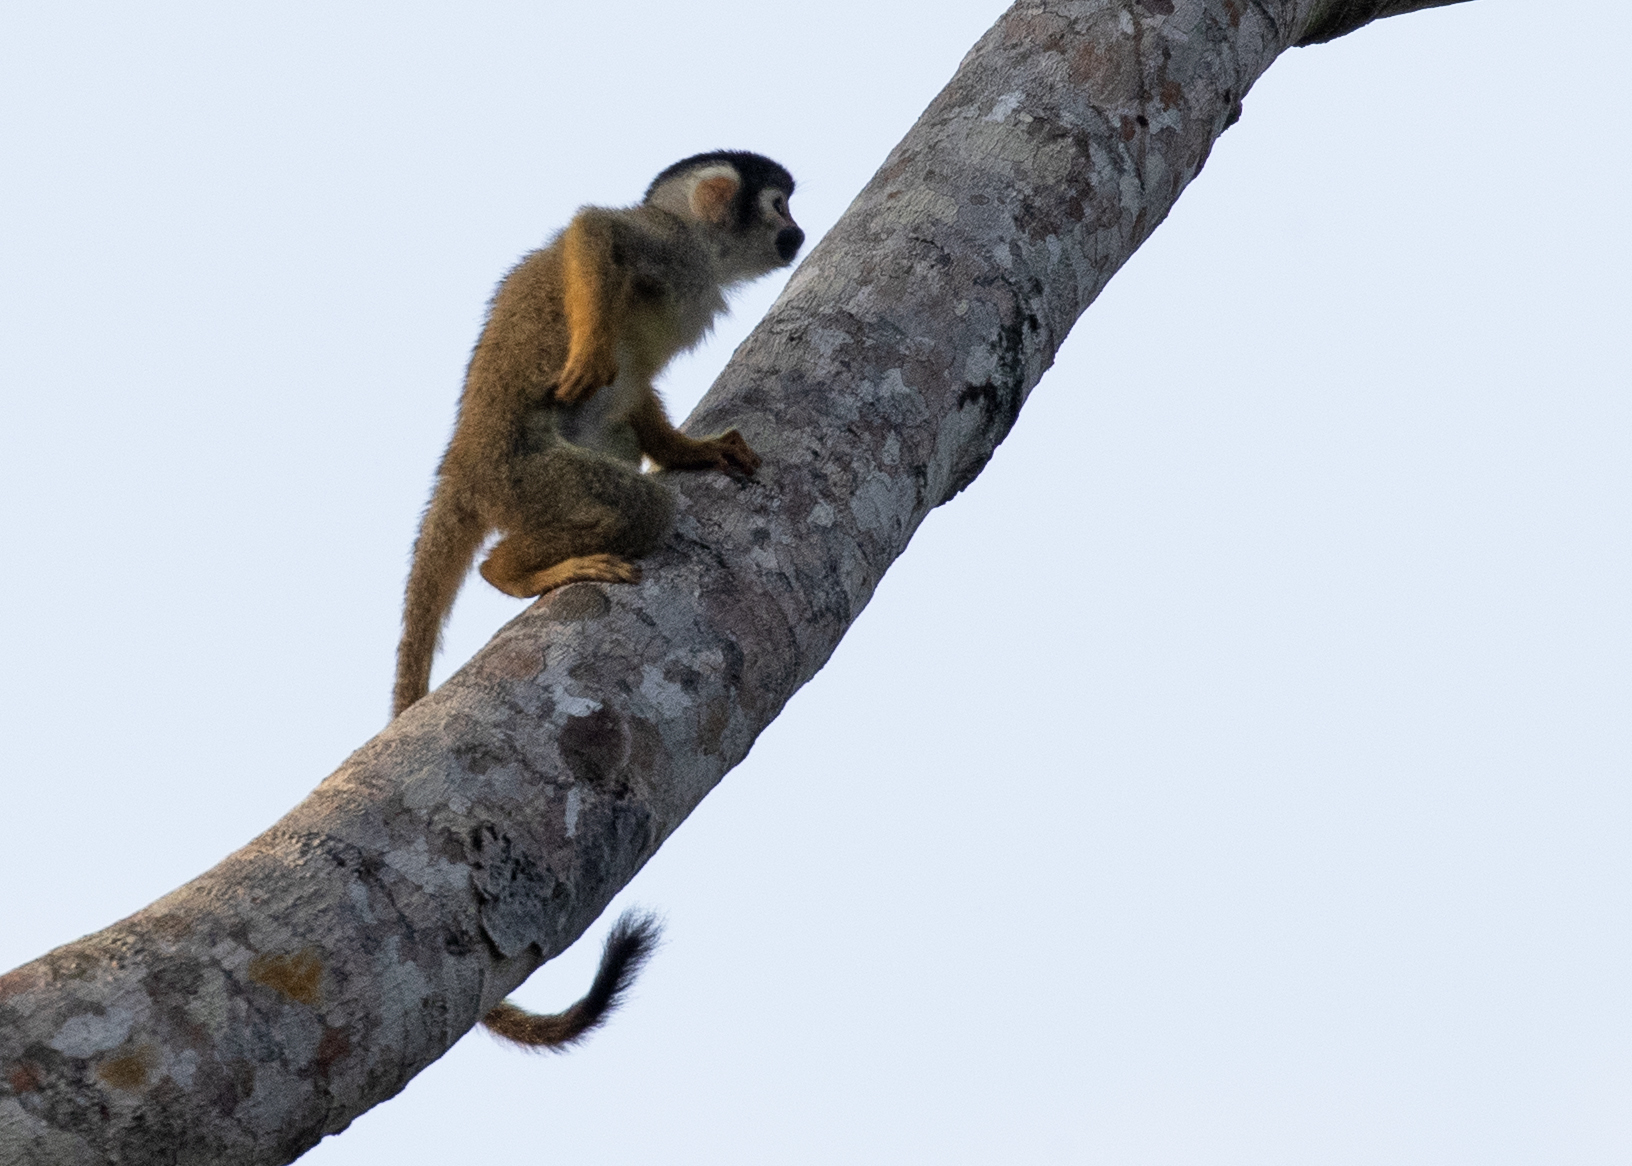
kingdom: Animalia
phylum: Chordata
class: Mammalia
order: Primates
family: Cebidae
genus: Saimiri
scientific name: Saimiri boliviensis
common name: Black-capped squirrel monkey
